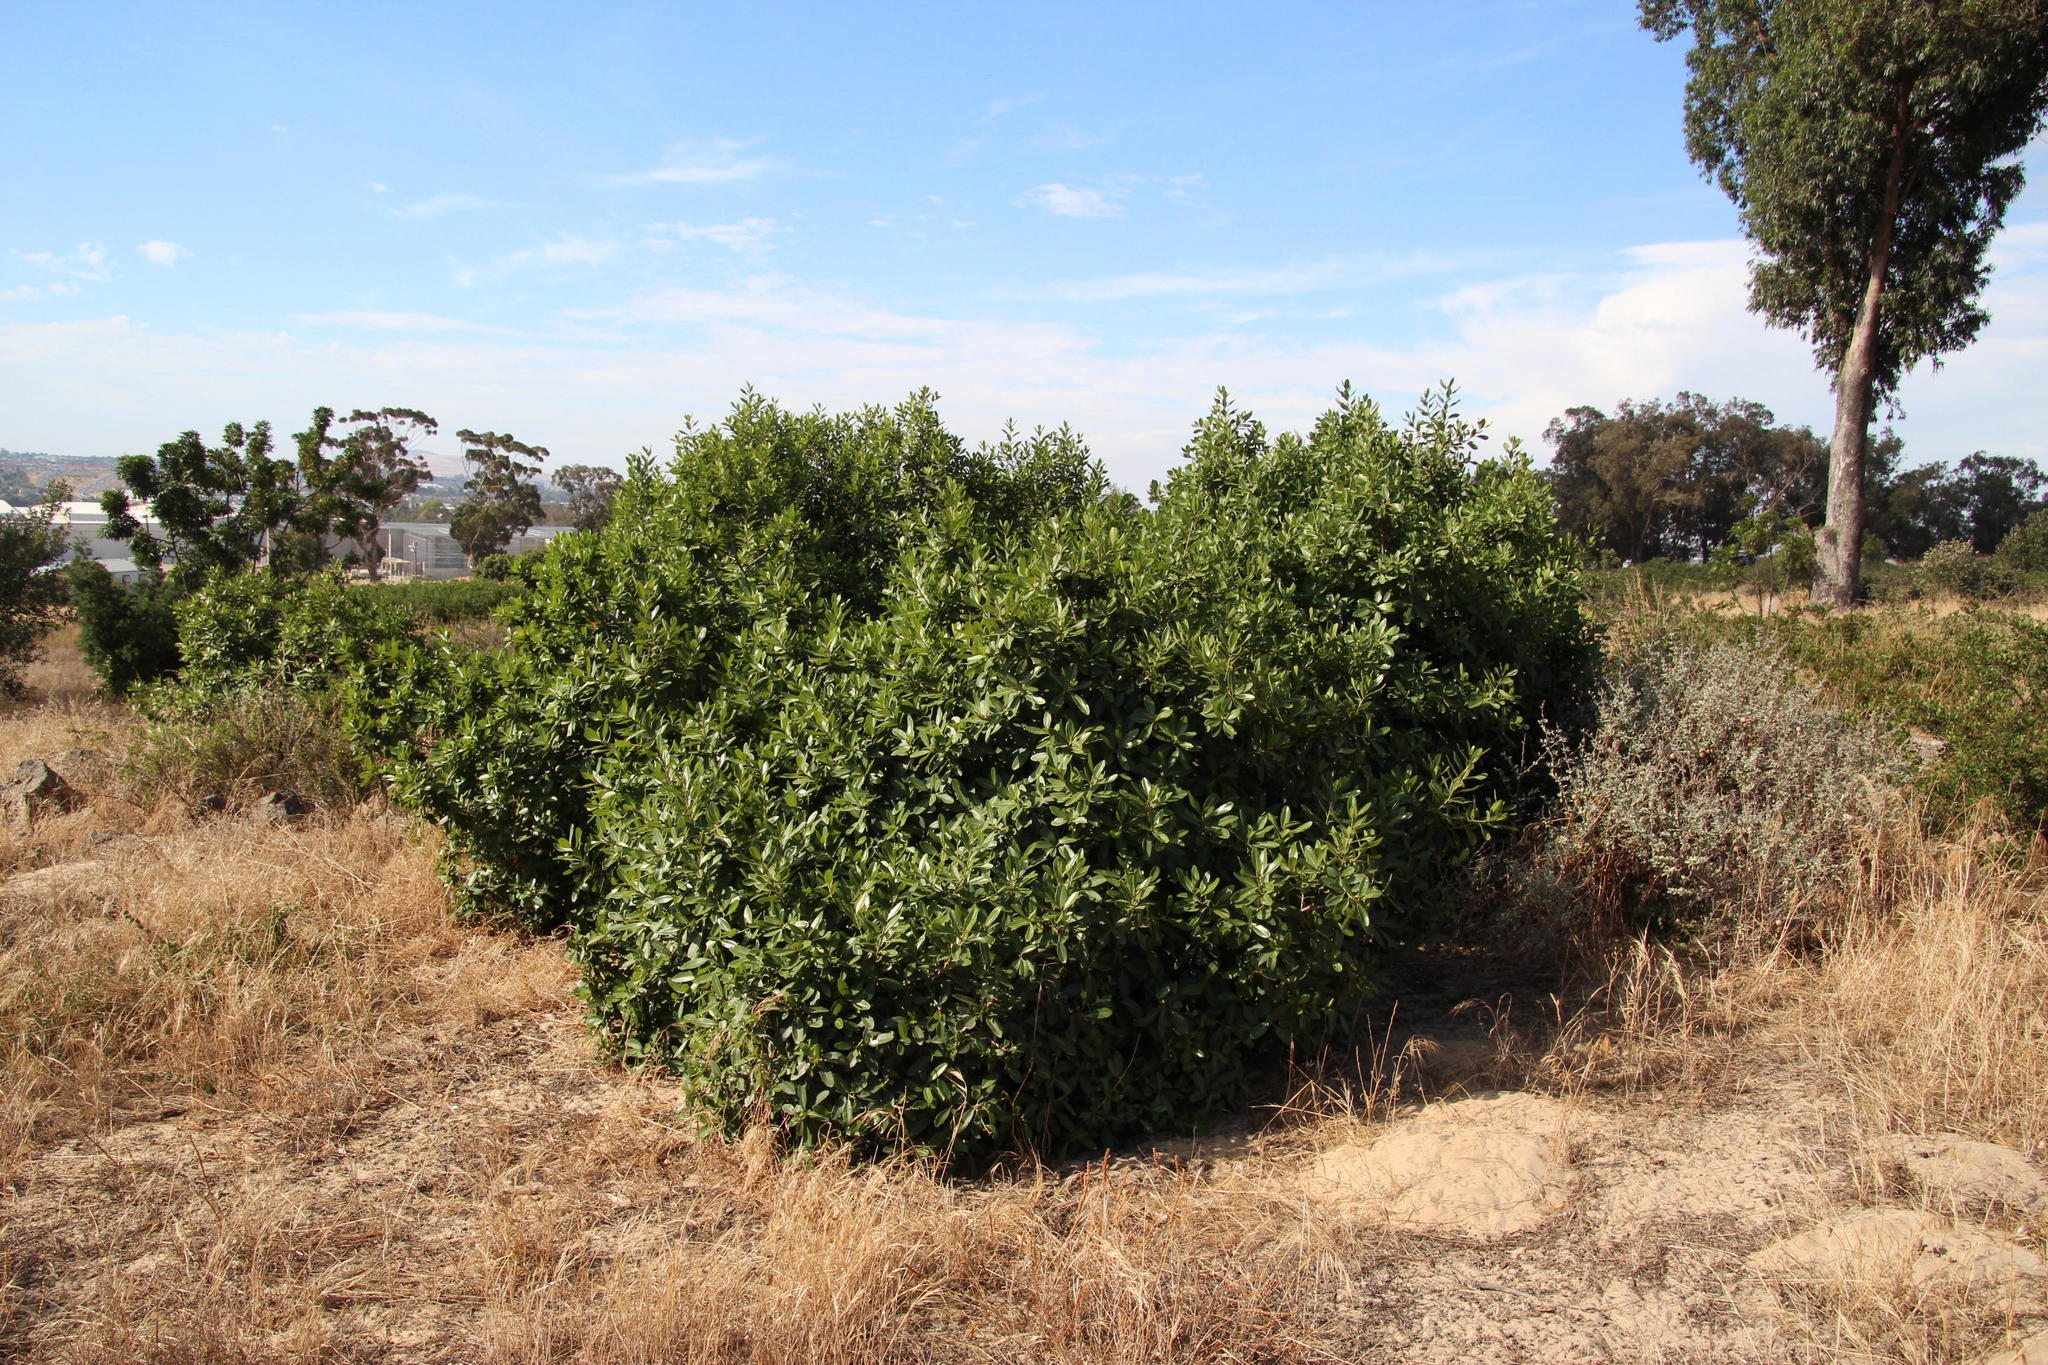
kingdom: Plantae
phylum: Tracheophyta
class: Magnoliopsida
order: Ericales
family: Sapotaceae
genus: Sideroxylon
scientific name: Sideroxylon inerme
